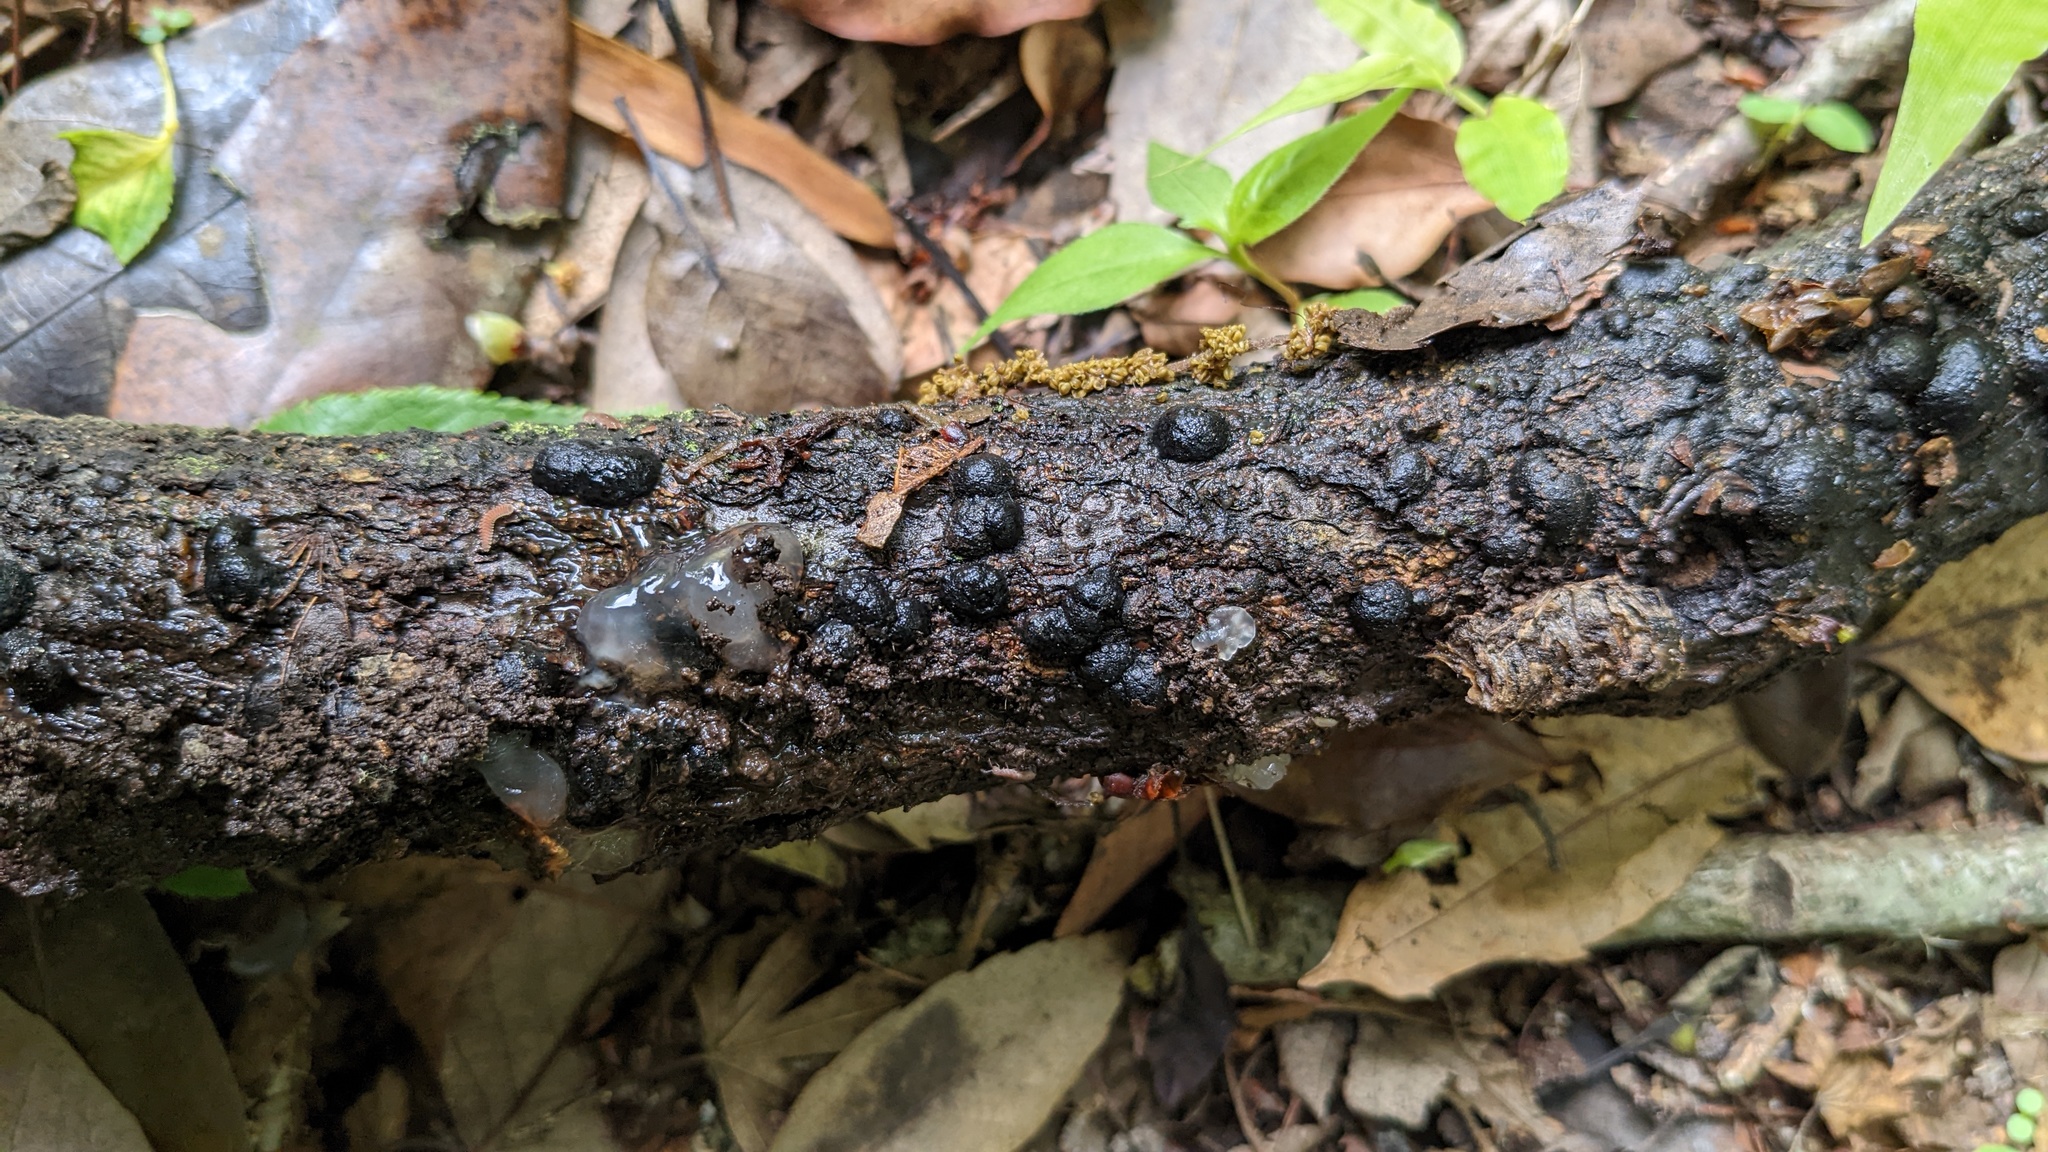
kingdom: Fungi
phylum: Ascomycota
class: Sordariomycetes
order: Xylariales
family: Hypoxylaceae
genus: Annulohypoxylon
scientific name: Annulohypoxylon truncatum
